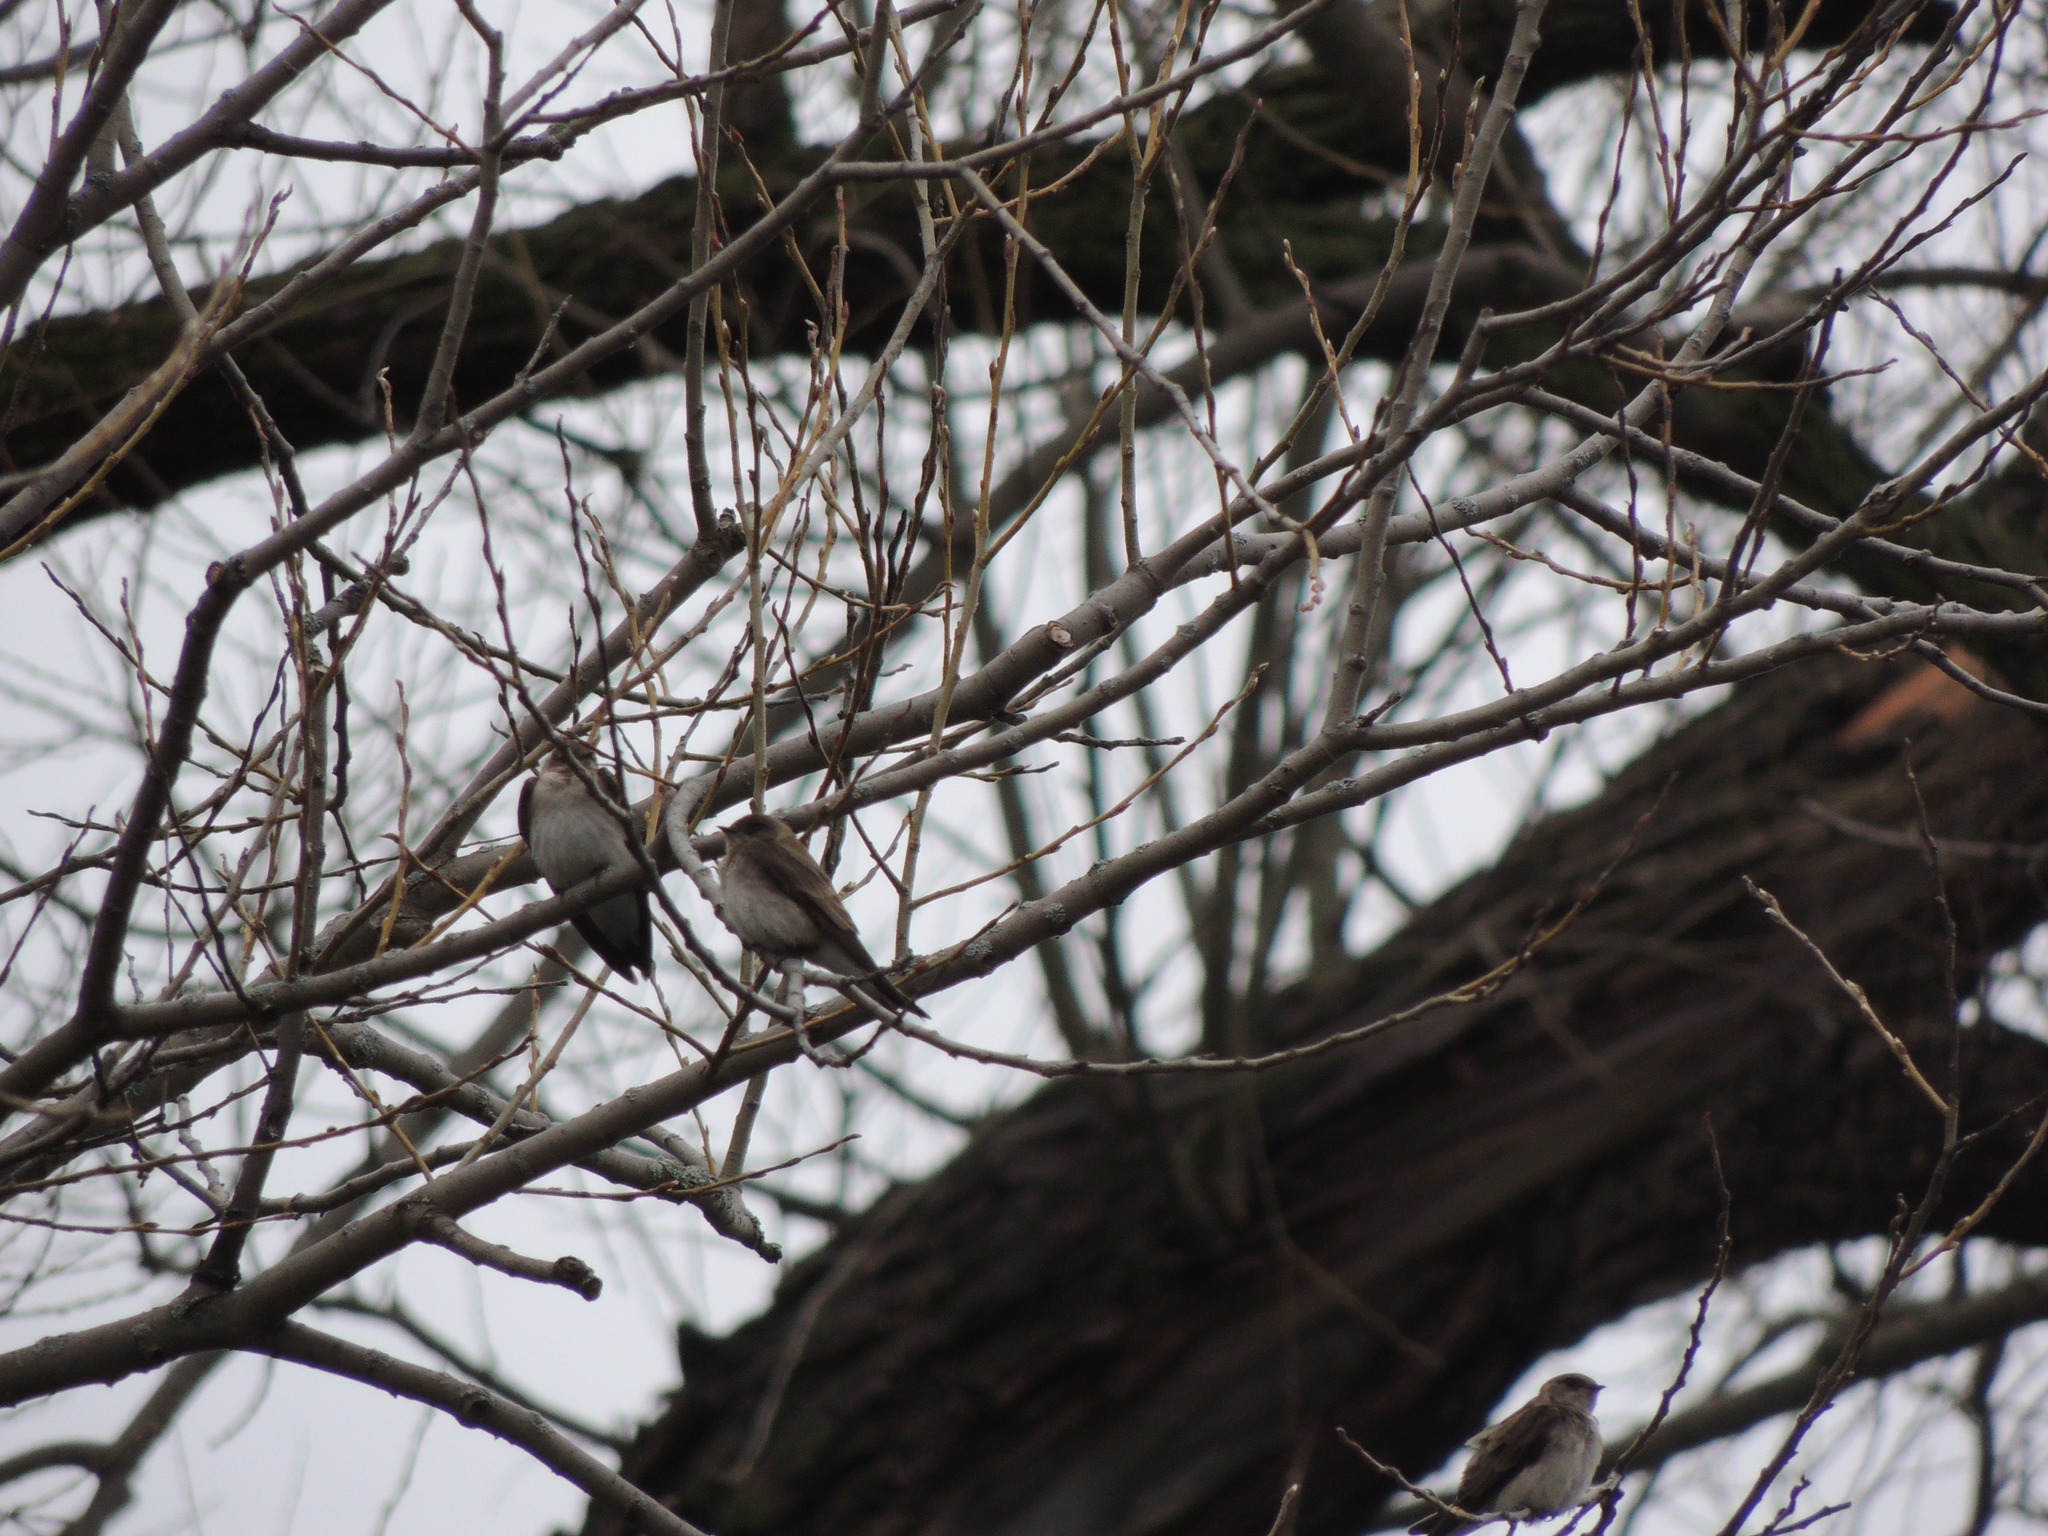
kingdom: Animalia
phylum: Chordata
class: Aves
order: Passeriformes
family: Hirundinidae
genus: Stelgidopteryx
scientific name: Stelgidopteryx serripennis
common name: Northern rough-winged swallow
